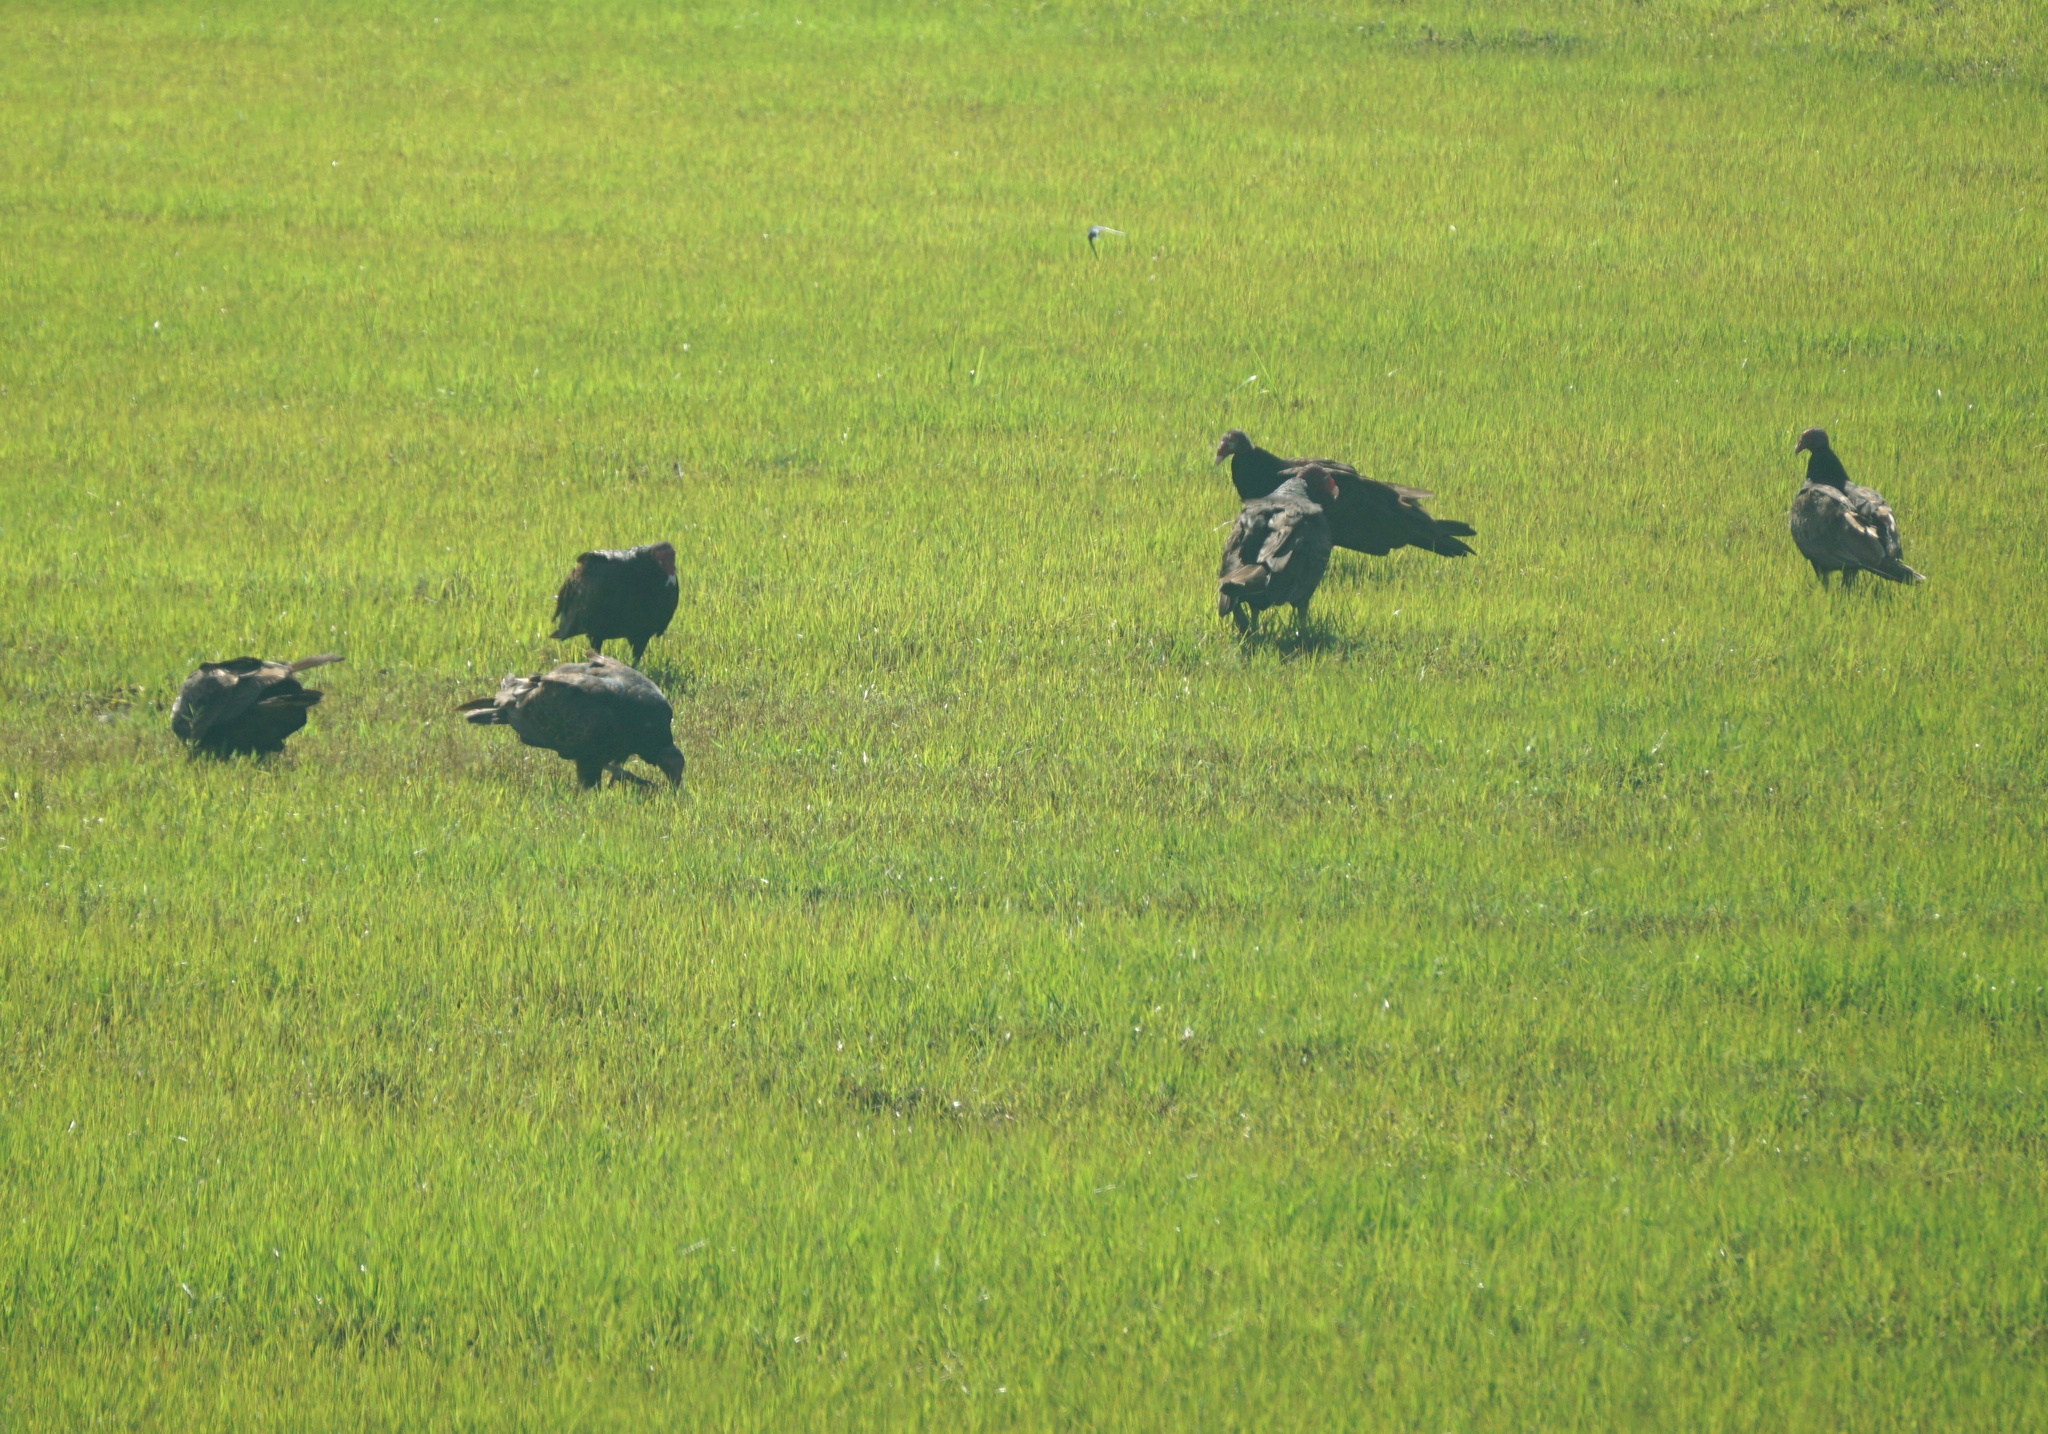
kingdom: Animalia
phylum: Chordata
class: Aves
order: Accipitriformes
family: Cathartidae
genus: Cathartes
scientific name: Cathartes aura
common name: Turkey vulture
